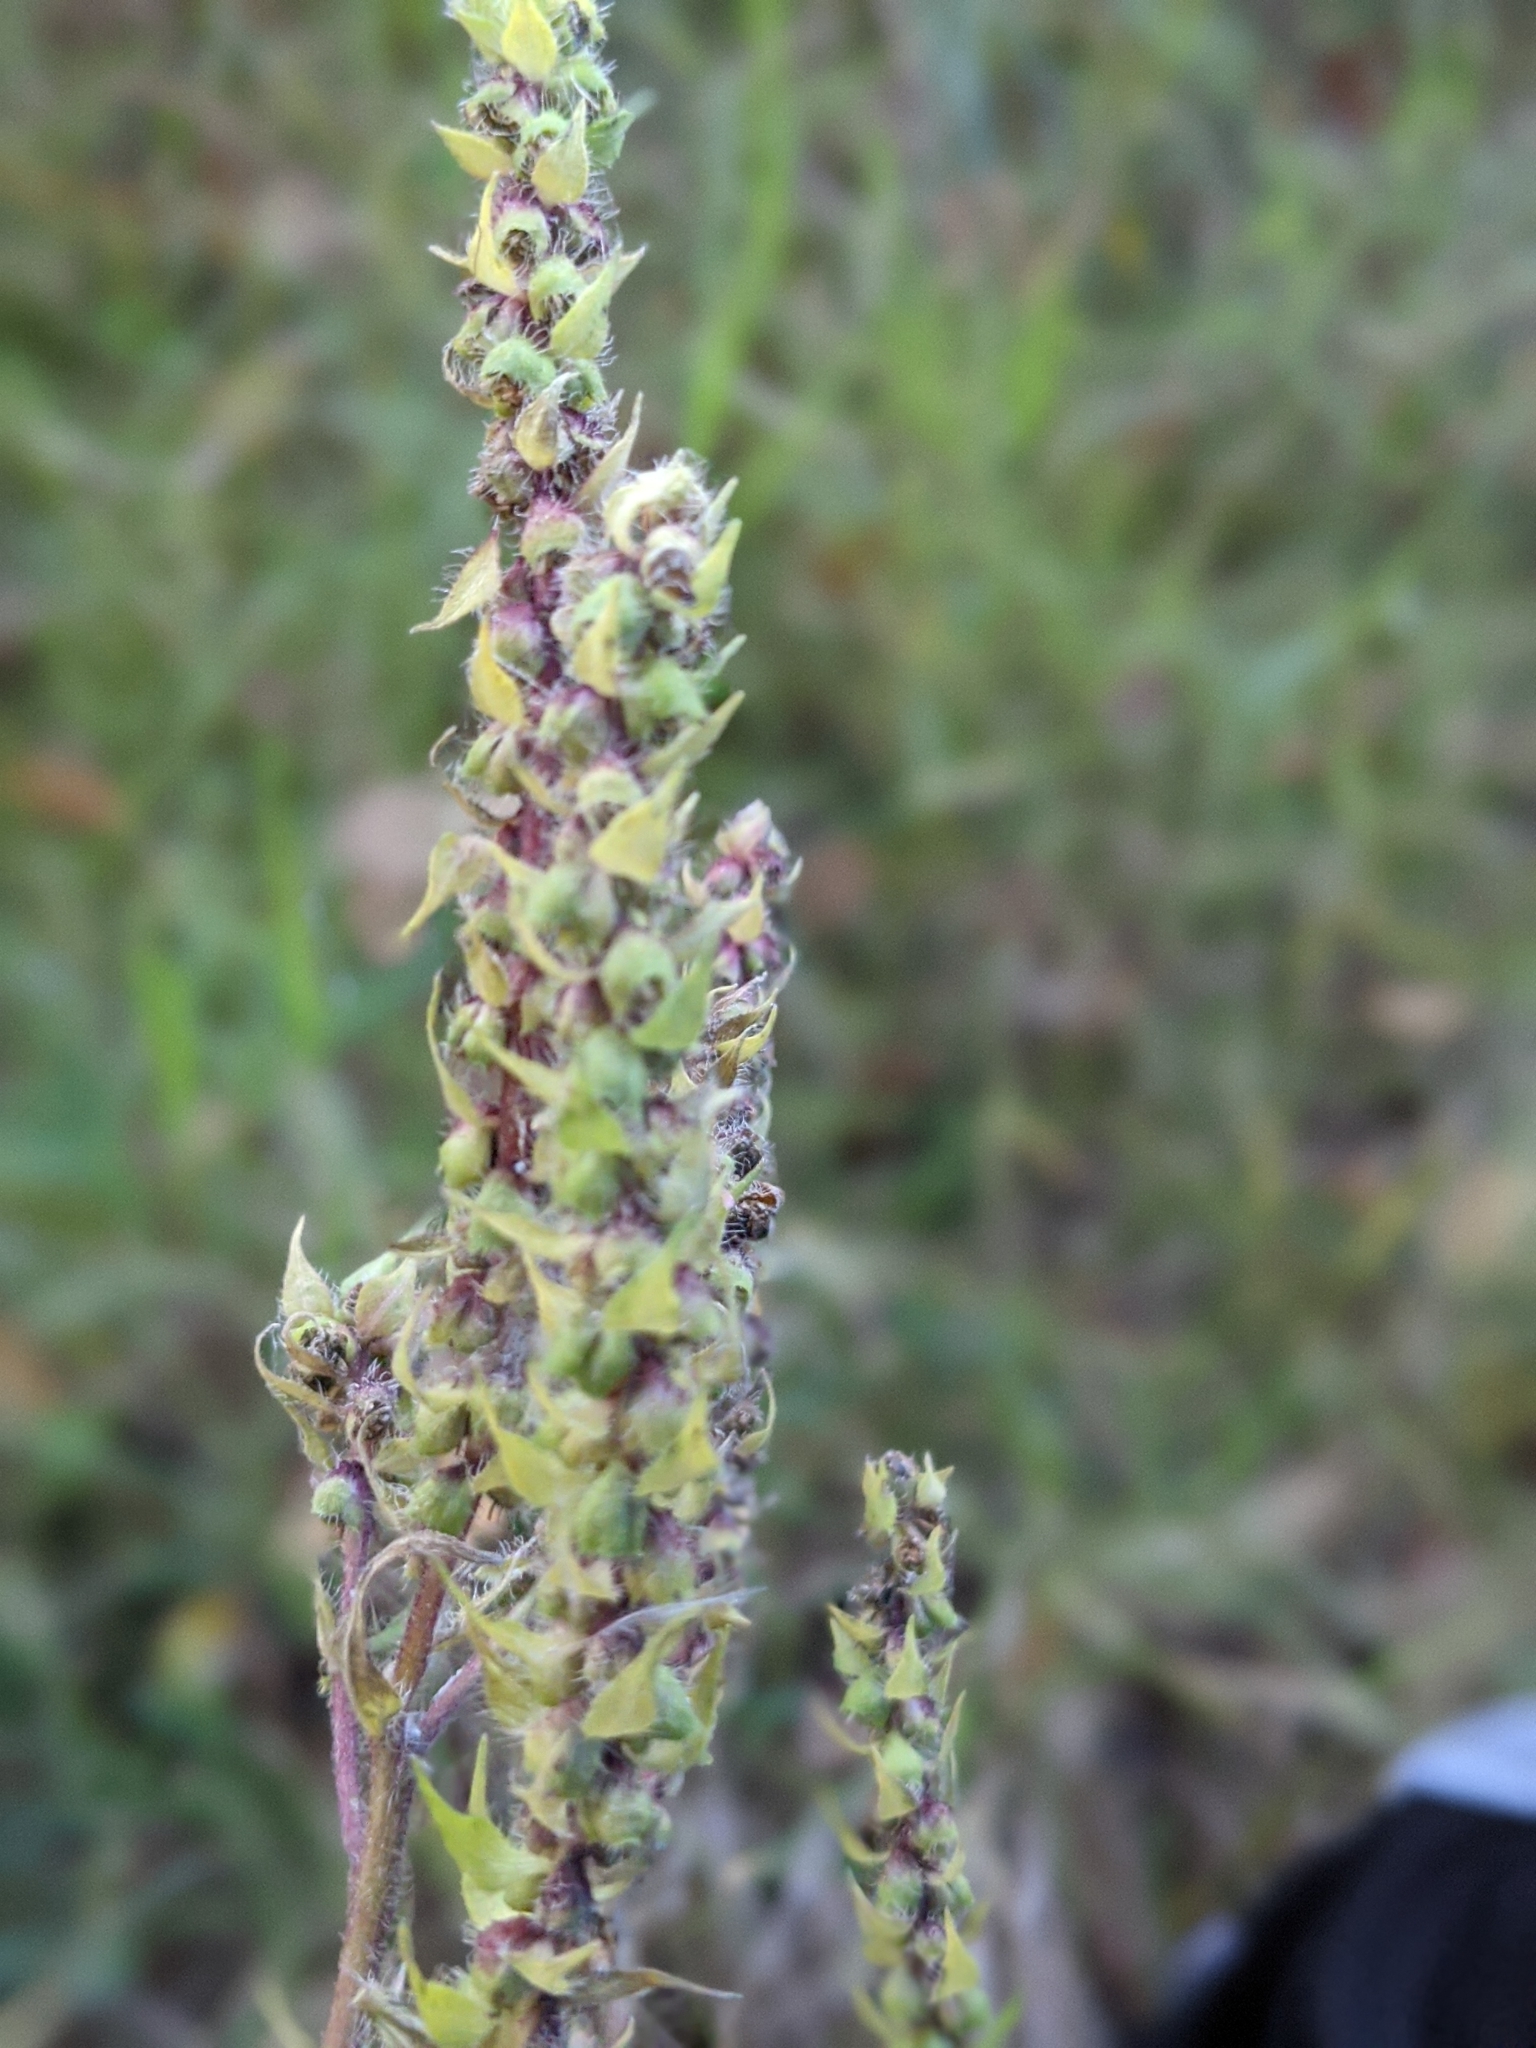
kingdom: Plantae
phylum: Tracheophyta
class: Magnoliopsida
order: Asterales
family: Asteraceae
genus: Iva
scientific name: Iva annua
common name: Marsh-elder
